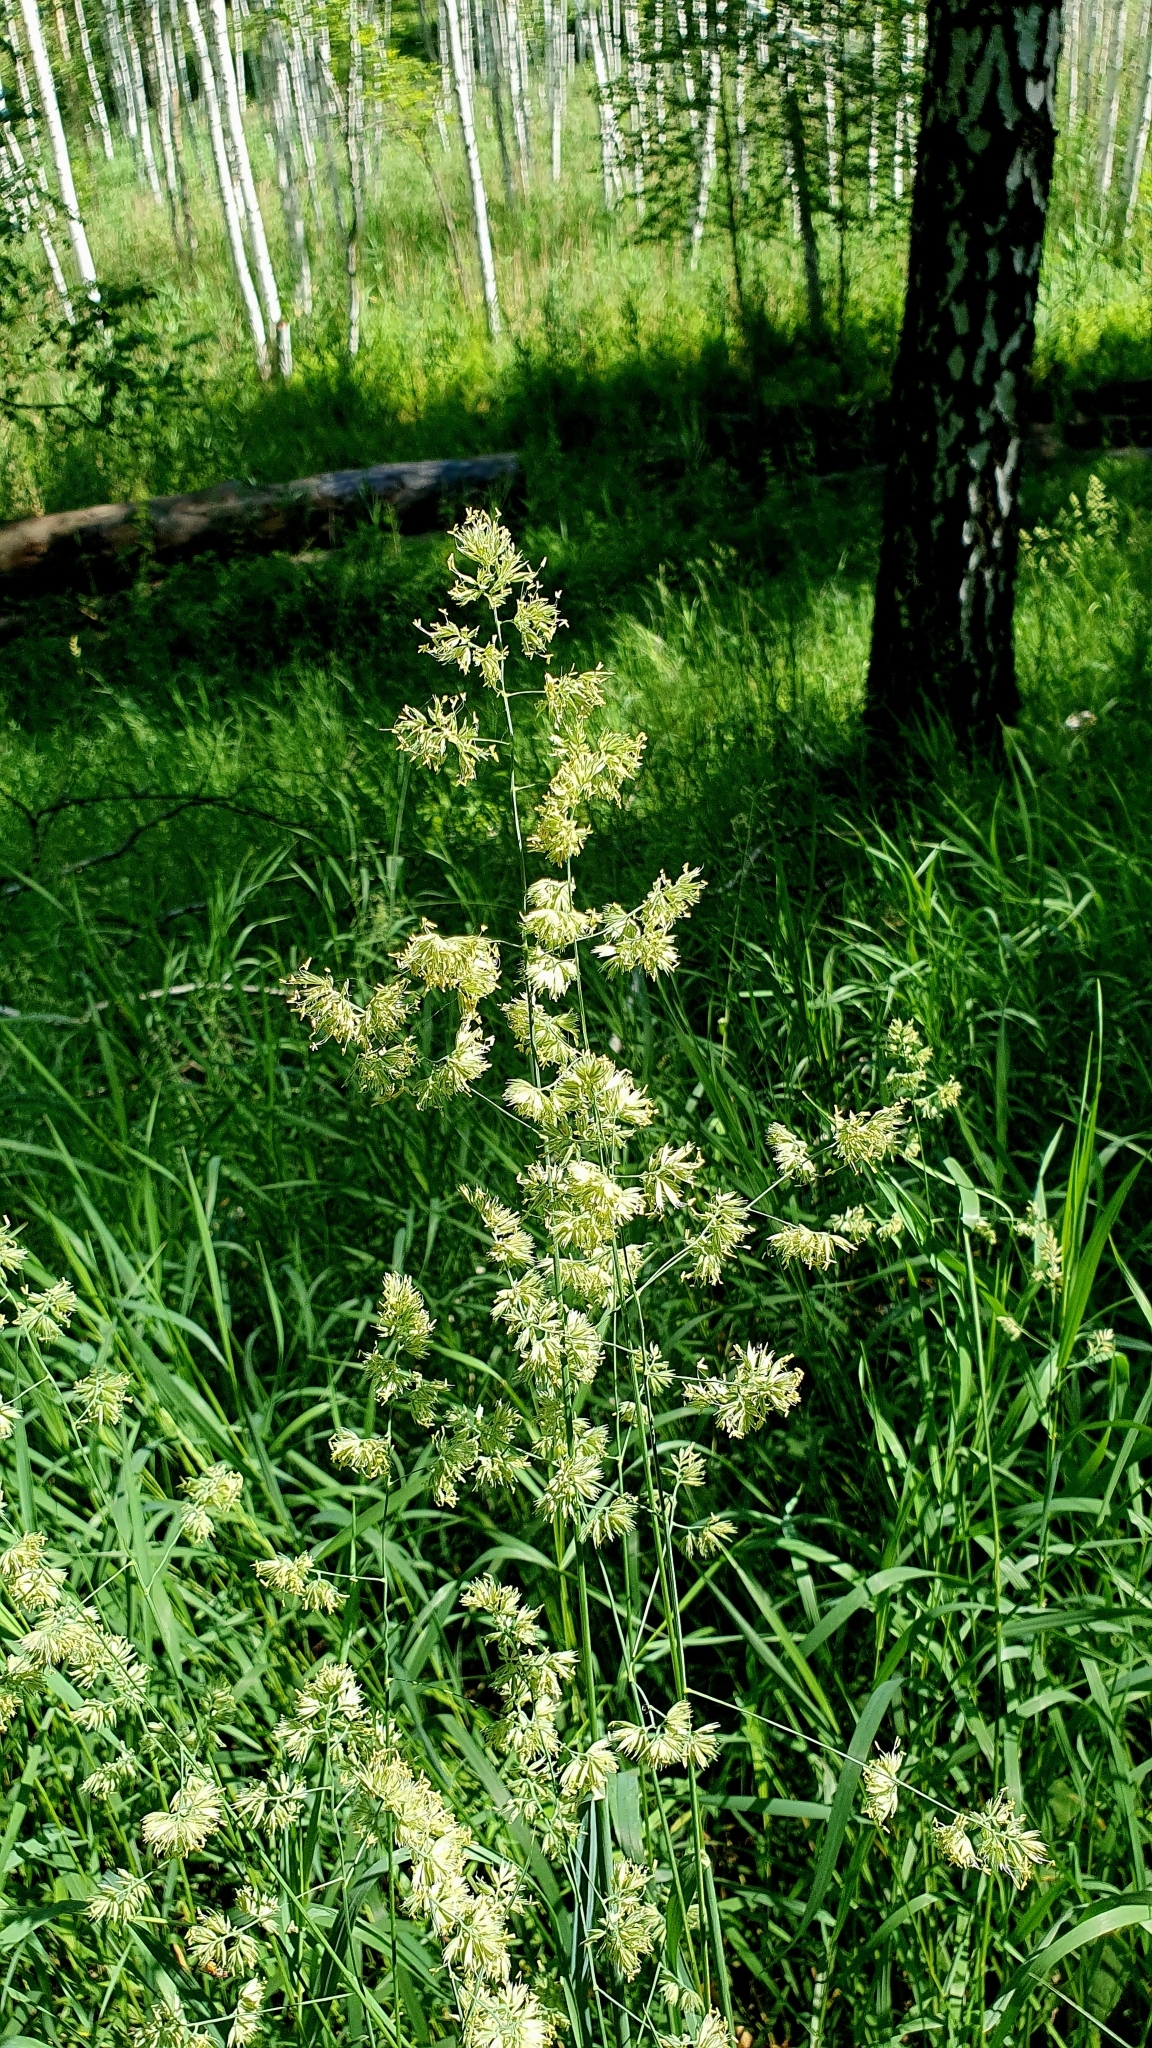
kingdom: Plantae
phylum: Tracheophyta
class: Liliopsida
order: Poales
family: Poaceae
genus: Dactylis
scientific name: Dactylis glomerata
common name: Orchardgrass
